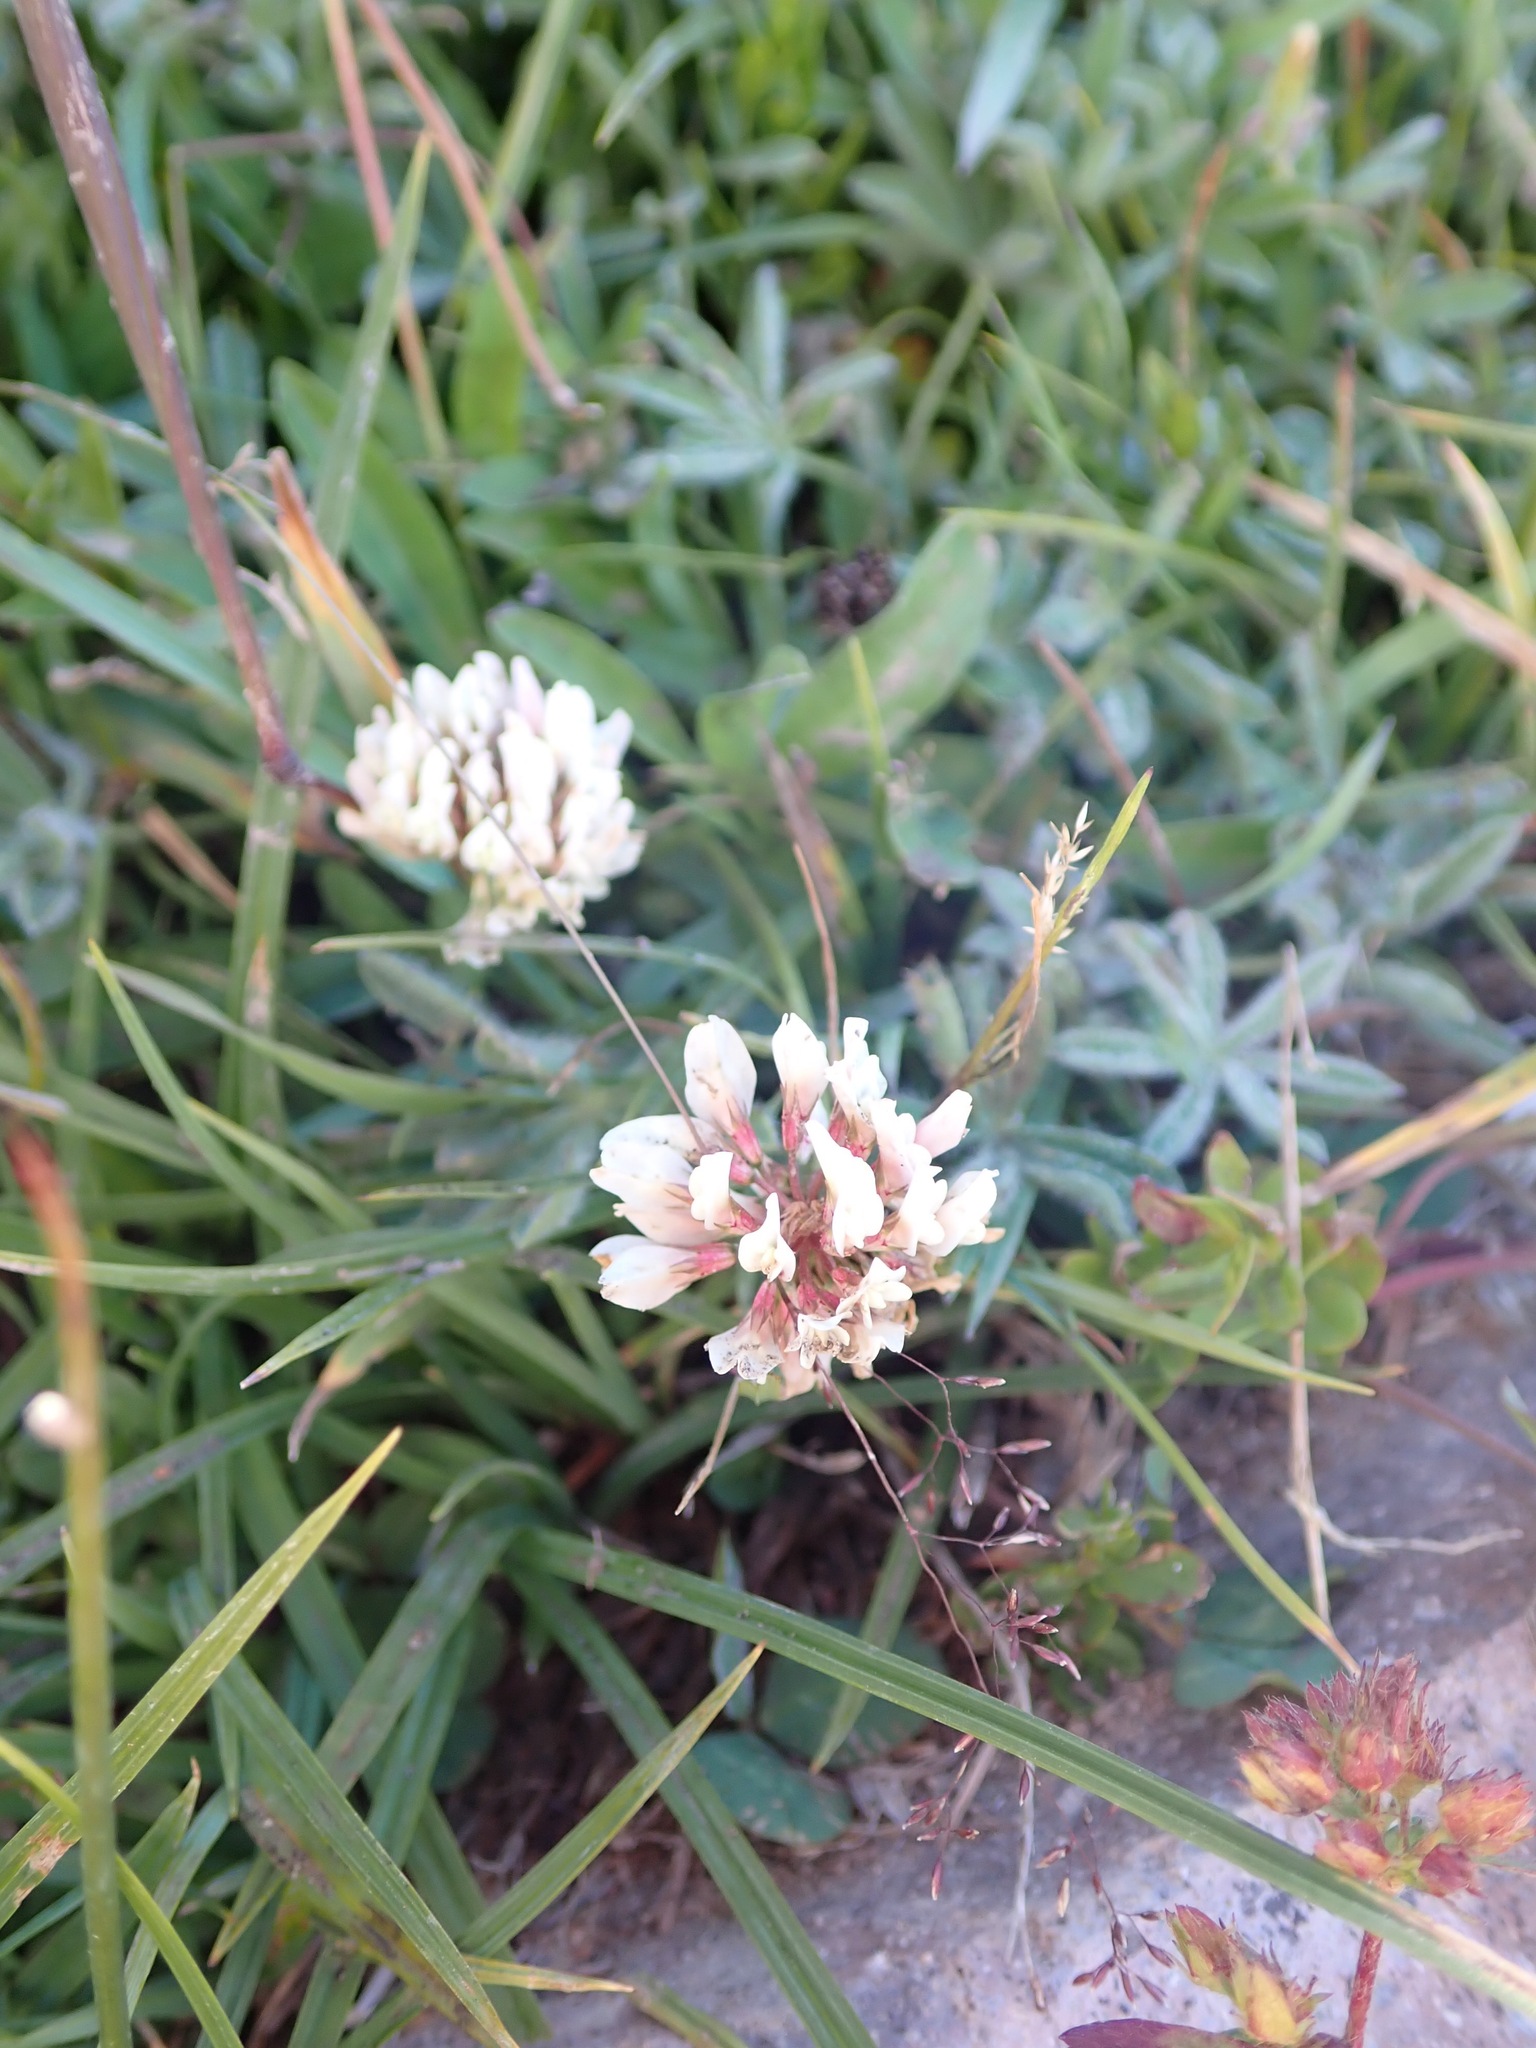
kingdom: Plantae
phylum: Tracheophyta
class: Magnoliopsida
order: Fabales
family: Fabaceae
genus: Trifolium
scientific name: Trifolium repens
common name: White clover
